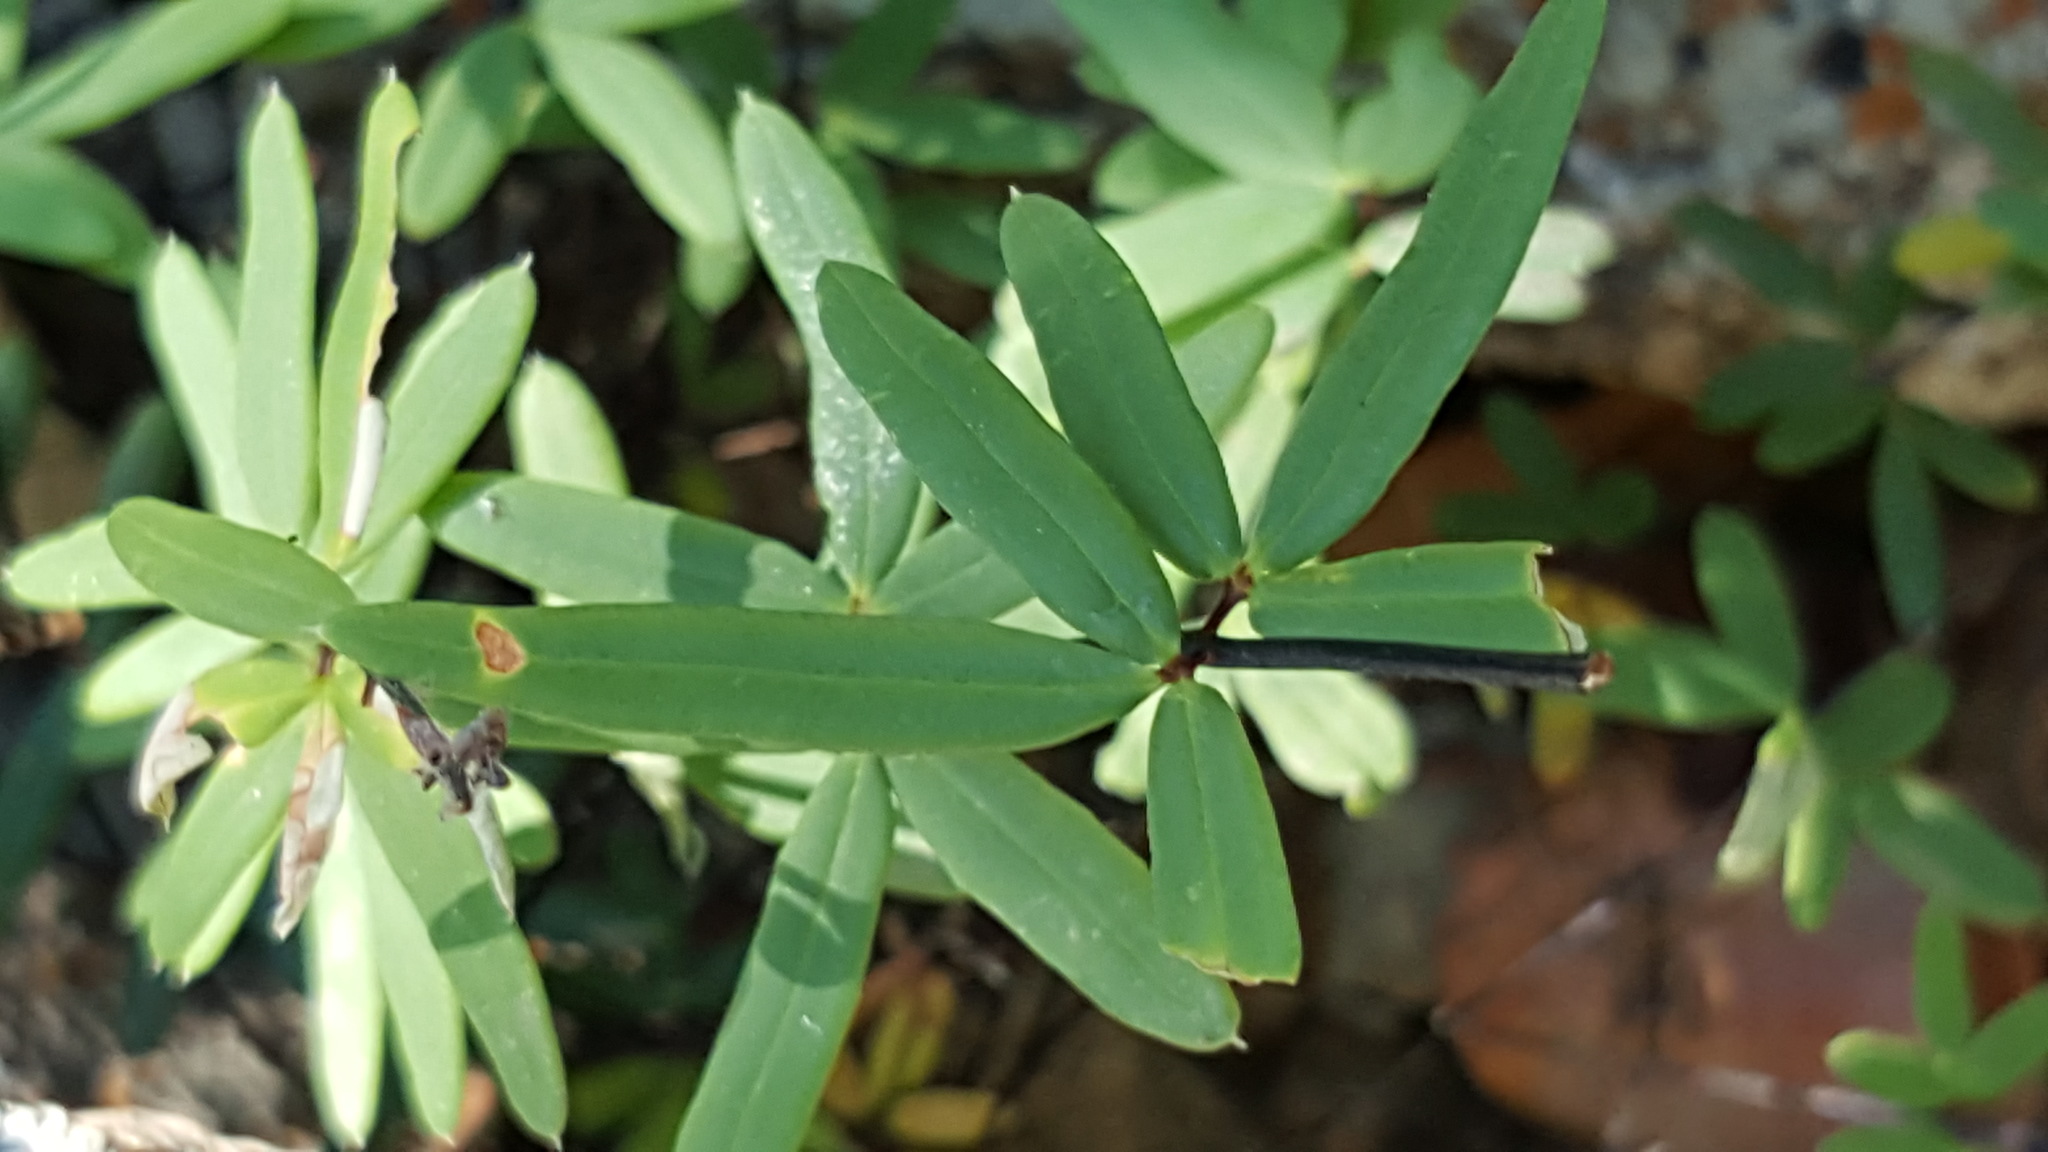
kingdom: Plantae
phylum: Tracheophyta
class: Polypodiopsida
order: Polypodiales
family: Pteridaceae
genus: Pellaea
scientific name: Pellaea ternifolia
